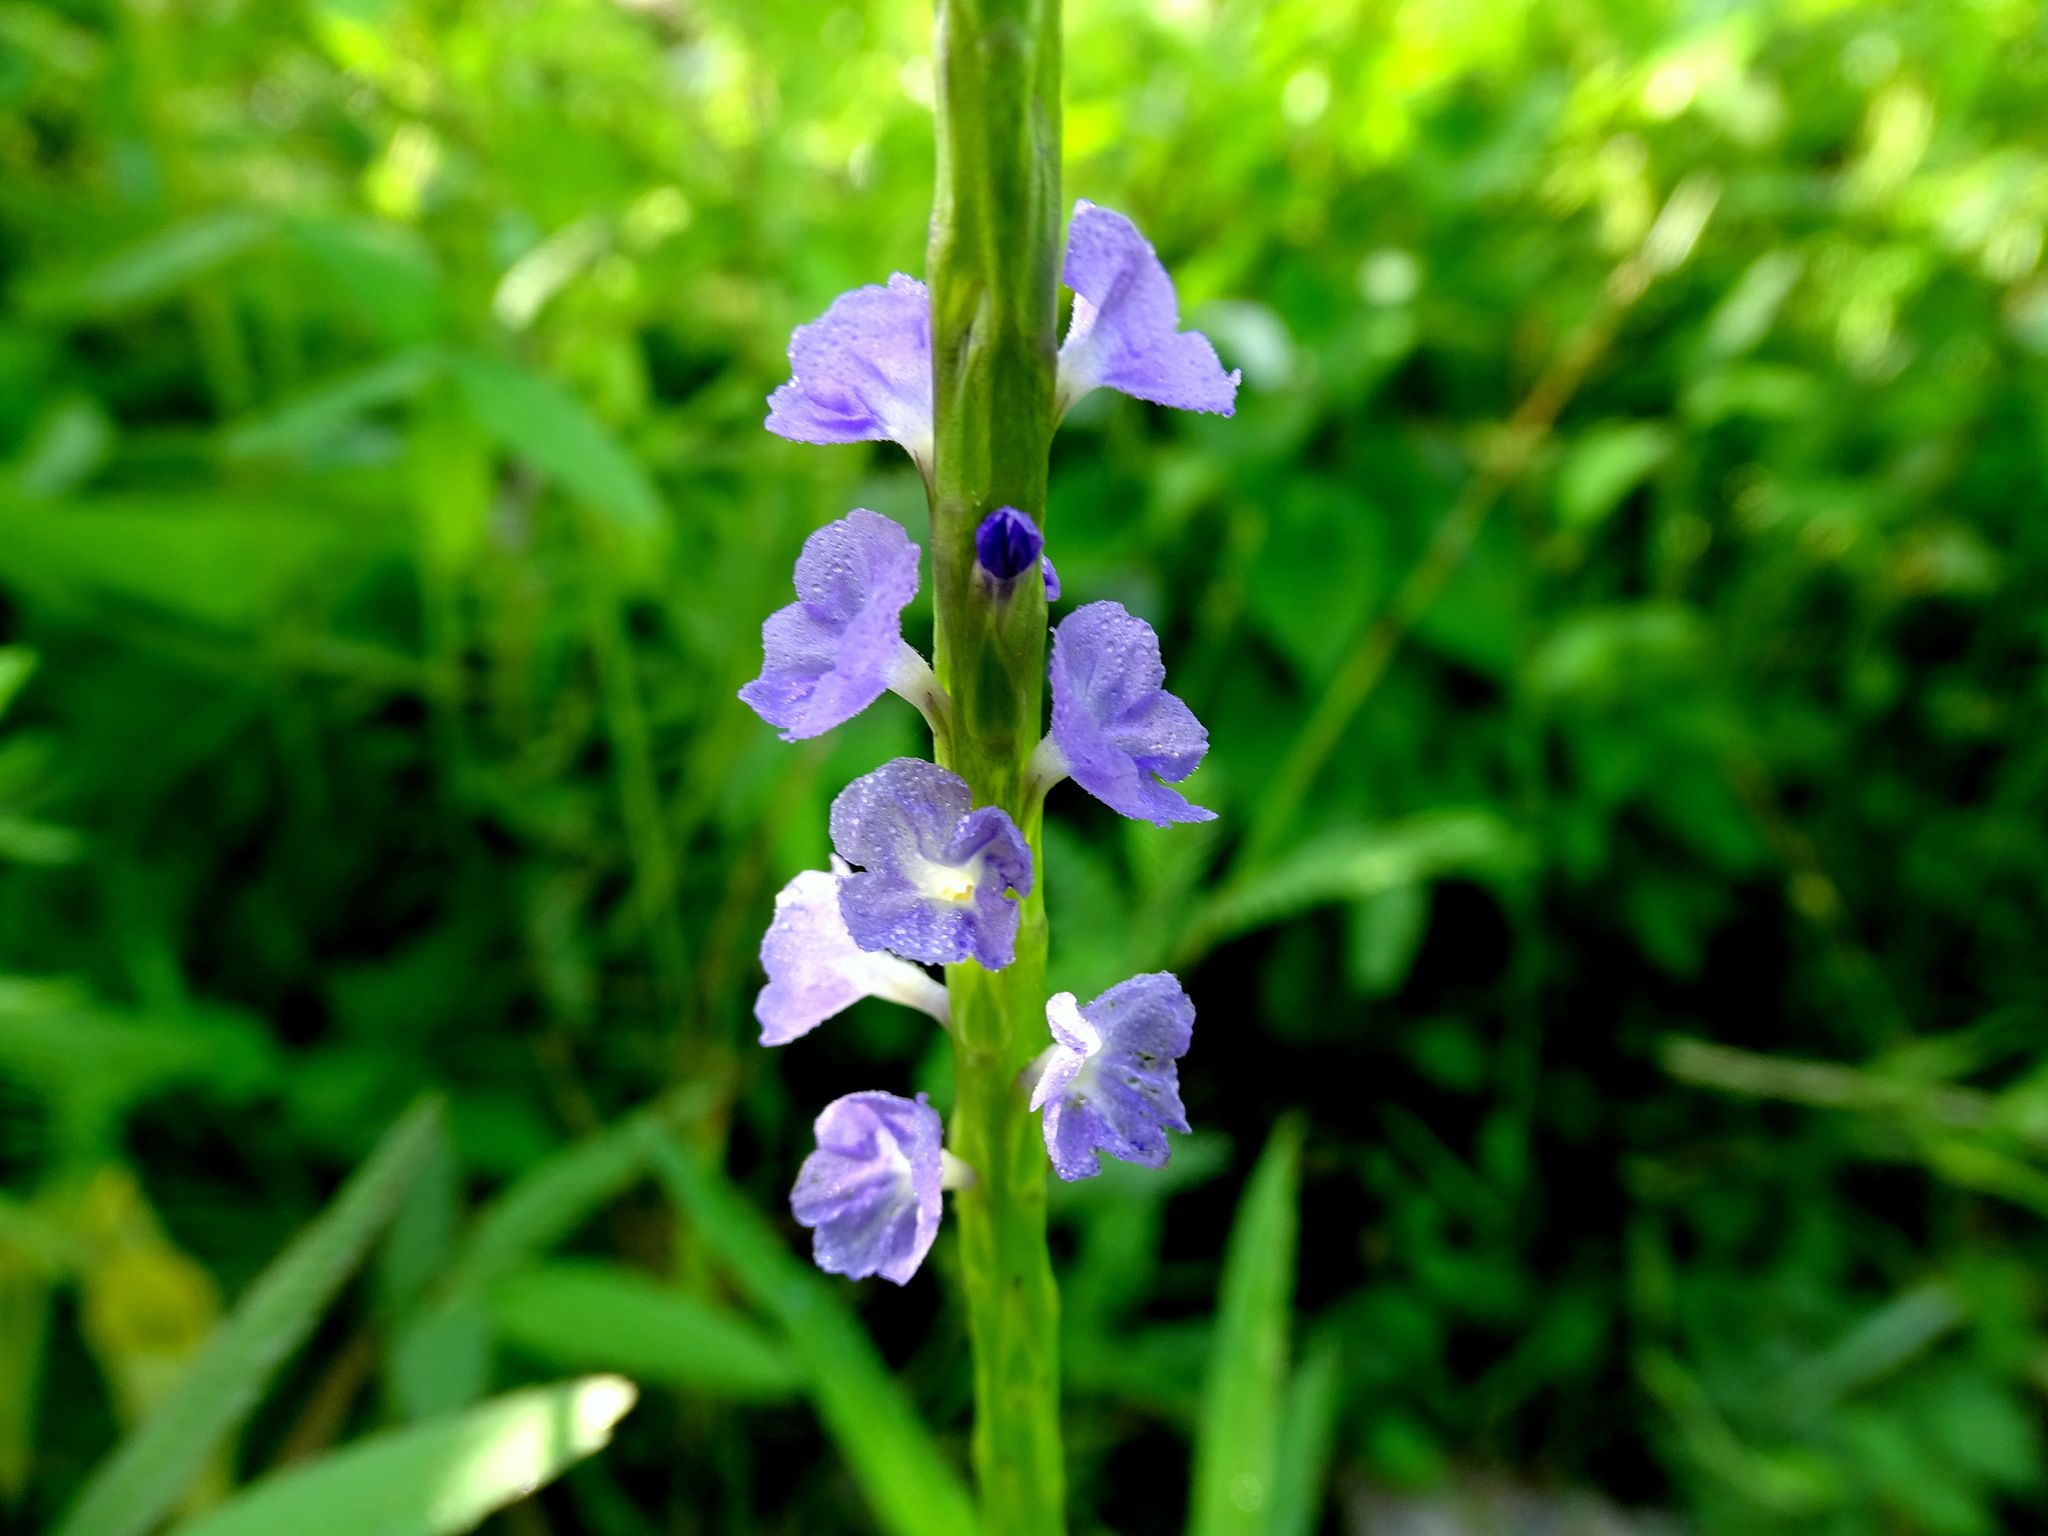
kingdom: Plantae
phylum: Tracheophyta
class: Magnoliopsida
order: Lamiales
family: Verbenaceae
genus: Stachytarpheta
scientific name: Stachytarpheta frantzii
